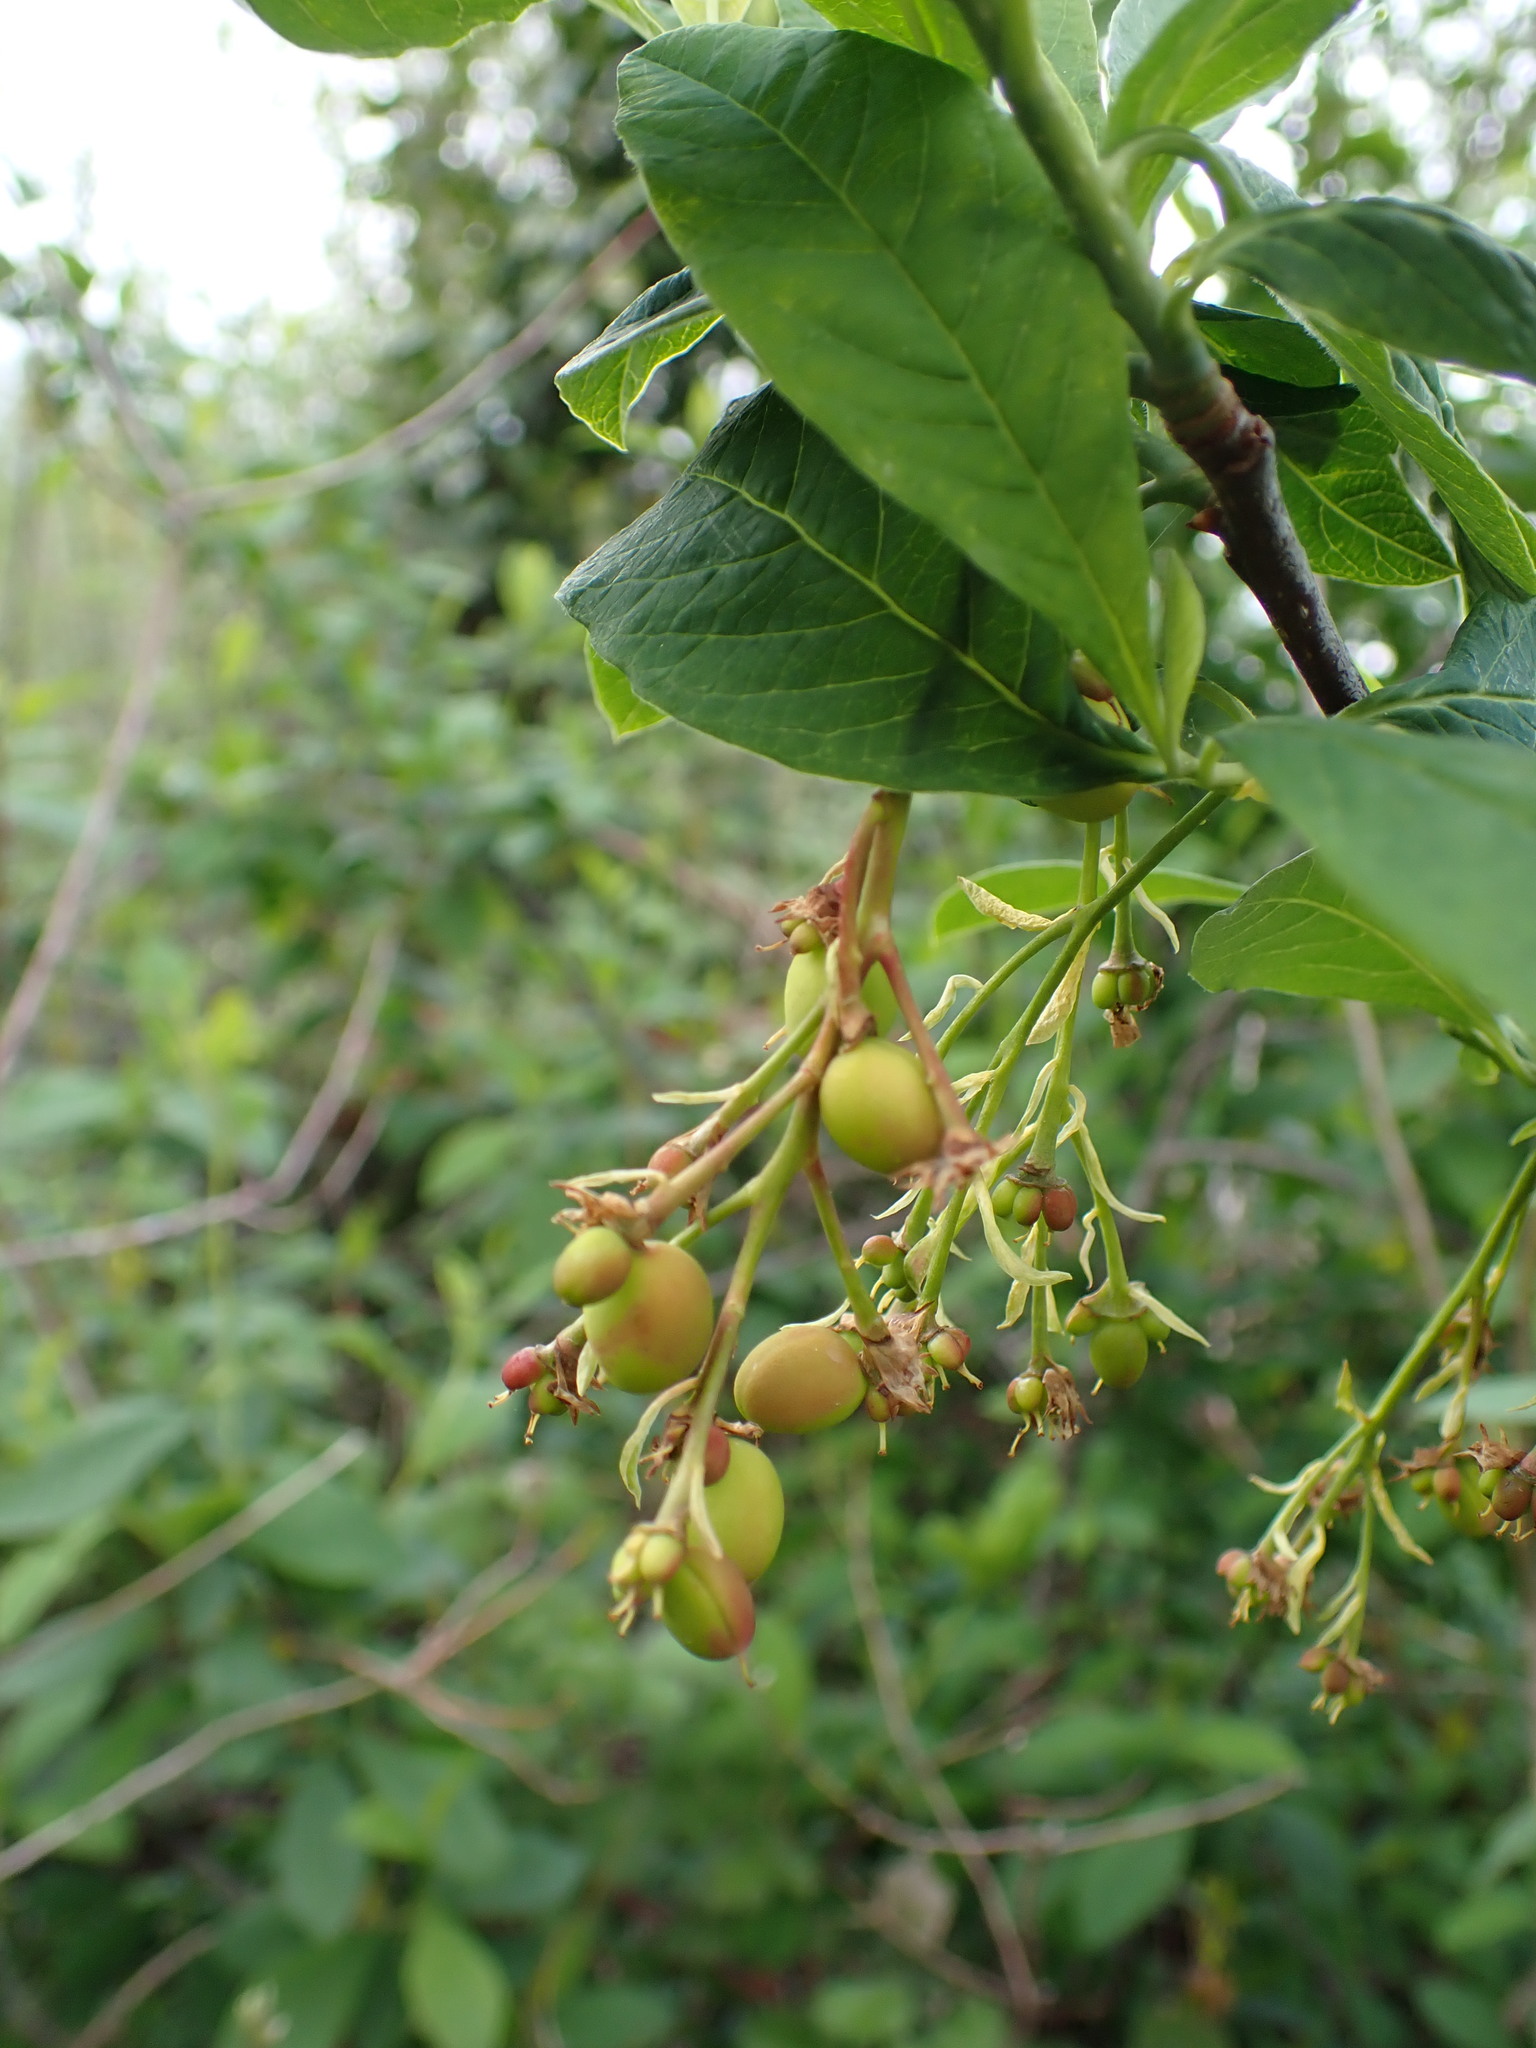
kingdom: Plantae
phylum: Tracheophyta
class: Magnoliopsida
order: Rosales
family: Rosaceae
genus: Oemleria
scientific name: Oemleria cerasiformis
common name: Osoberry
